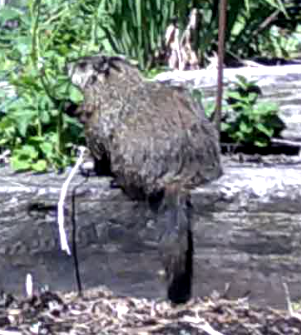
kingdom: Animalia
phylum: Chordata
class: Mammalia
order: Rodentia
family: Sciuridae
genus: Marmota
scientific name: Marmota monax
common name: Groundhog
